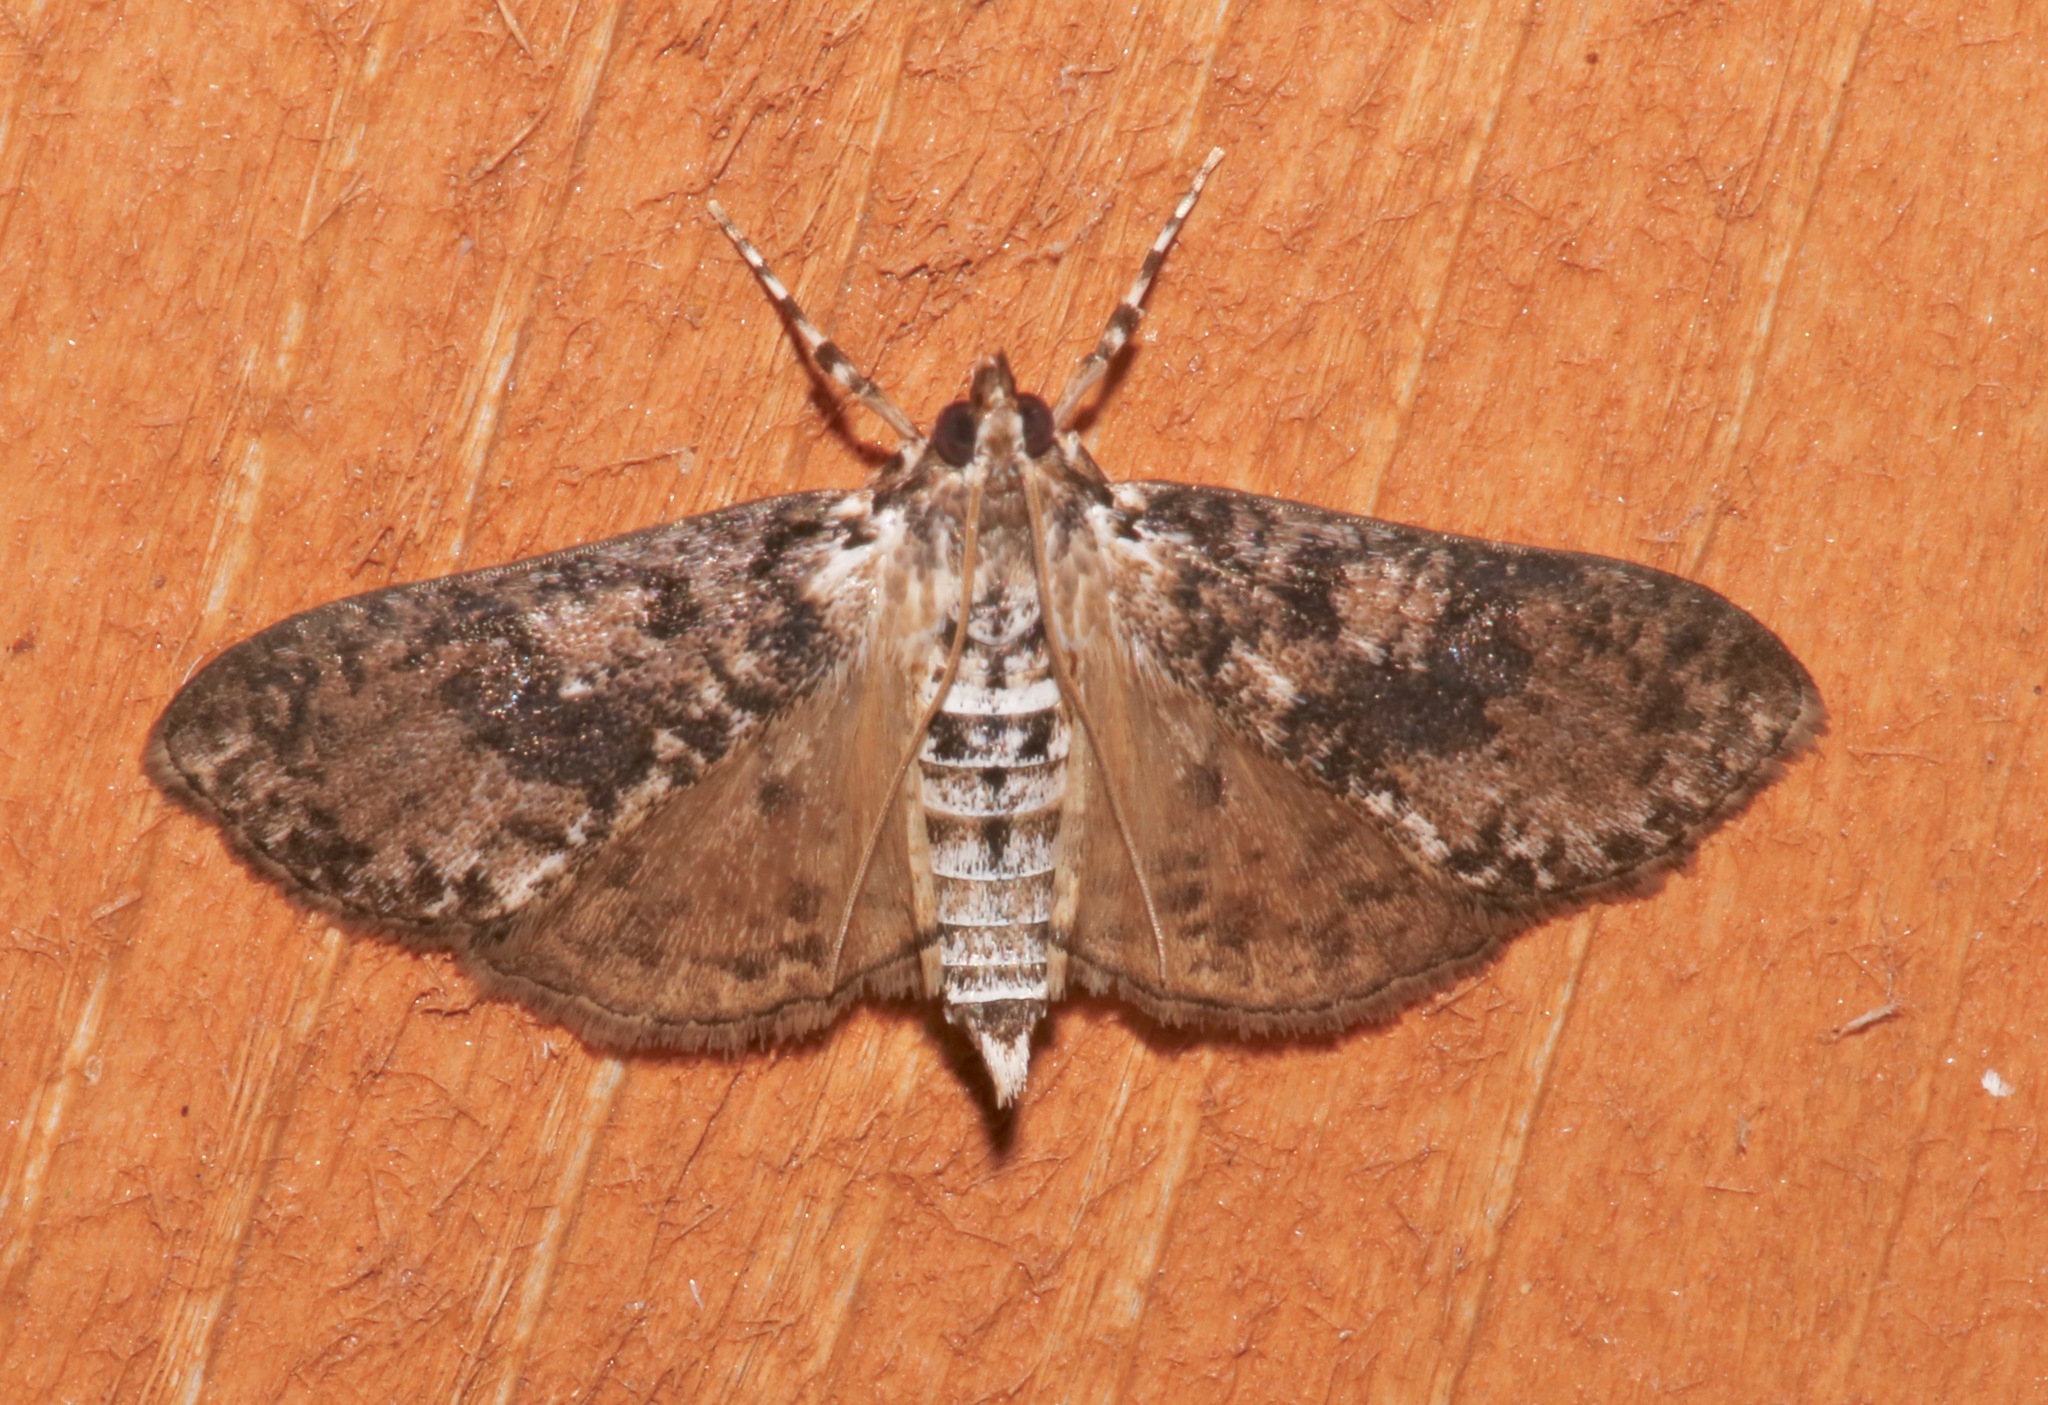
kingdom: Animalia
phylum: Arthropoda
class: Insecta
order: Lepidoptera
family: Crambidae
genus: Palpita
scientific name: Palpita magniferalis
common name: Splendid palpita moth
